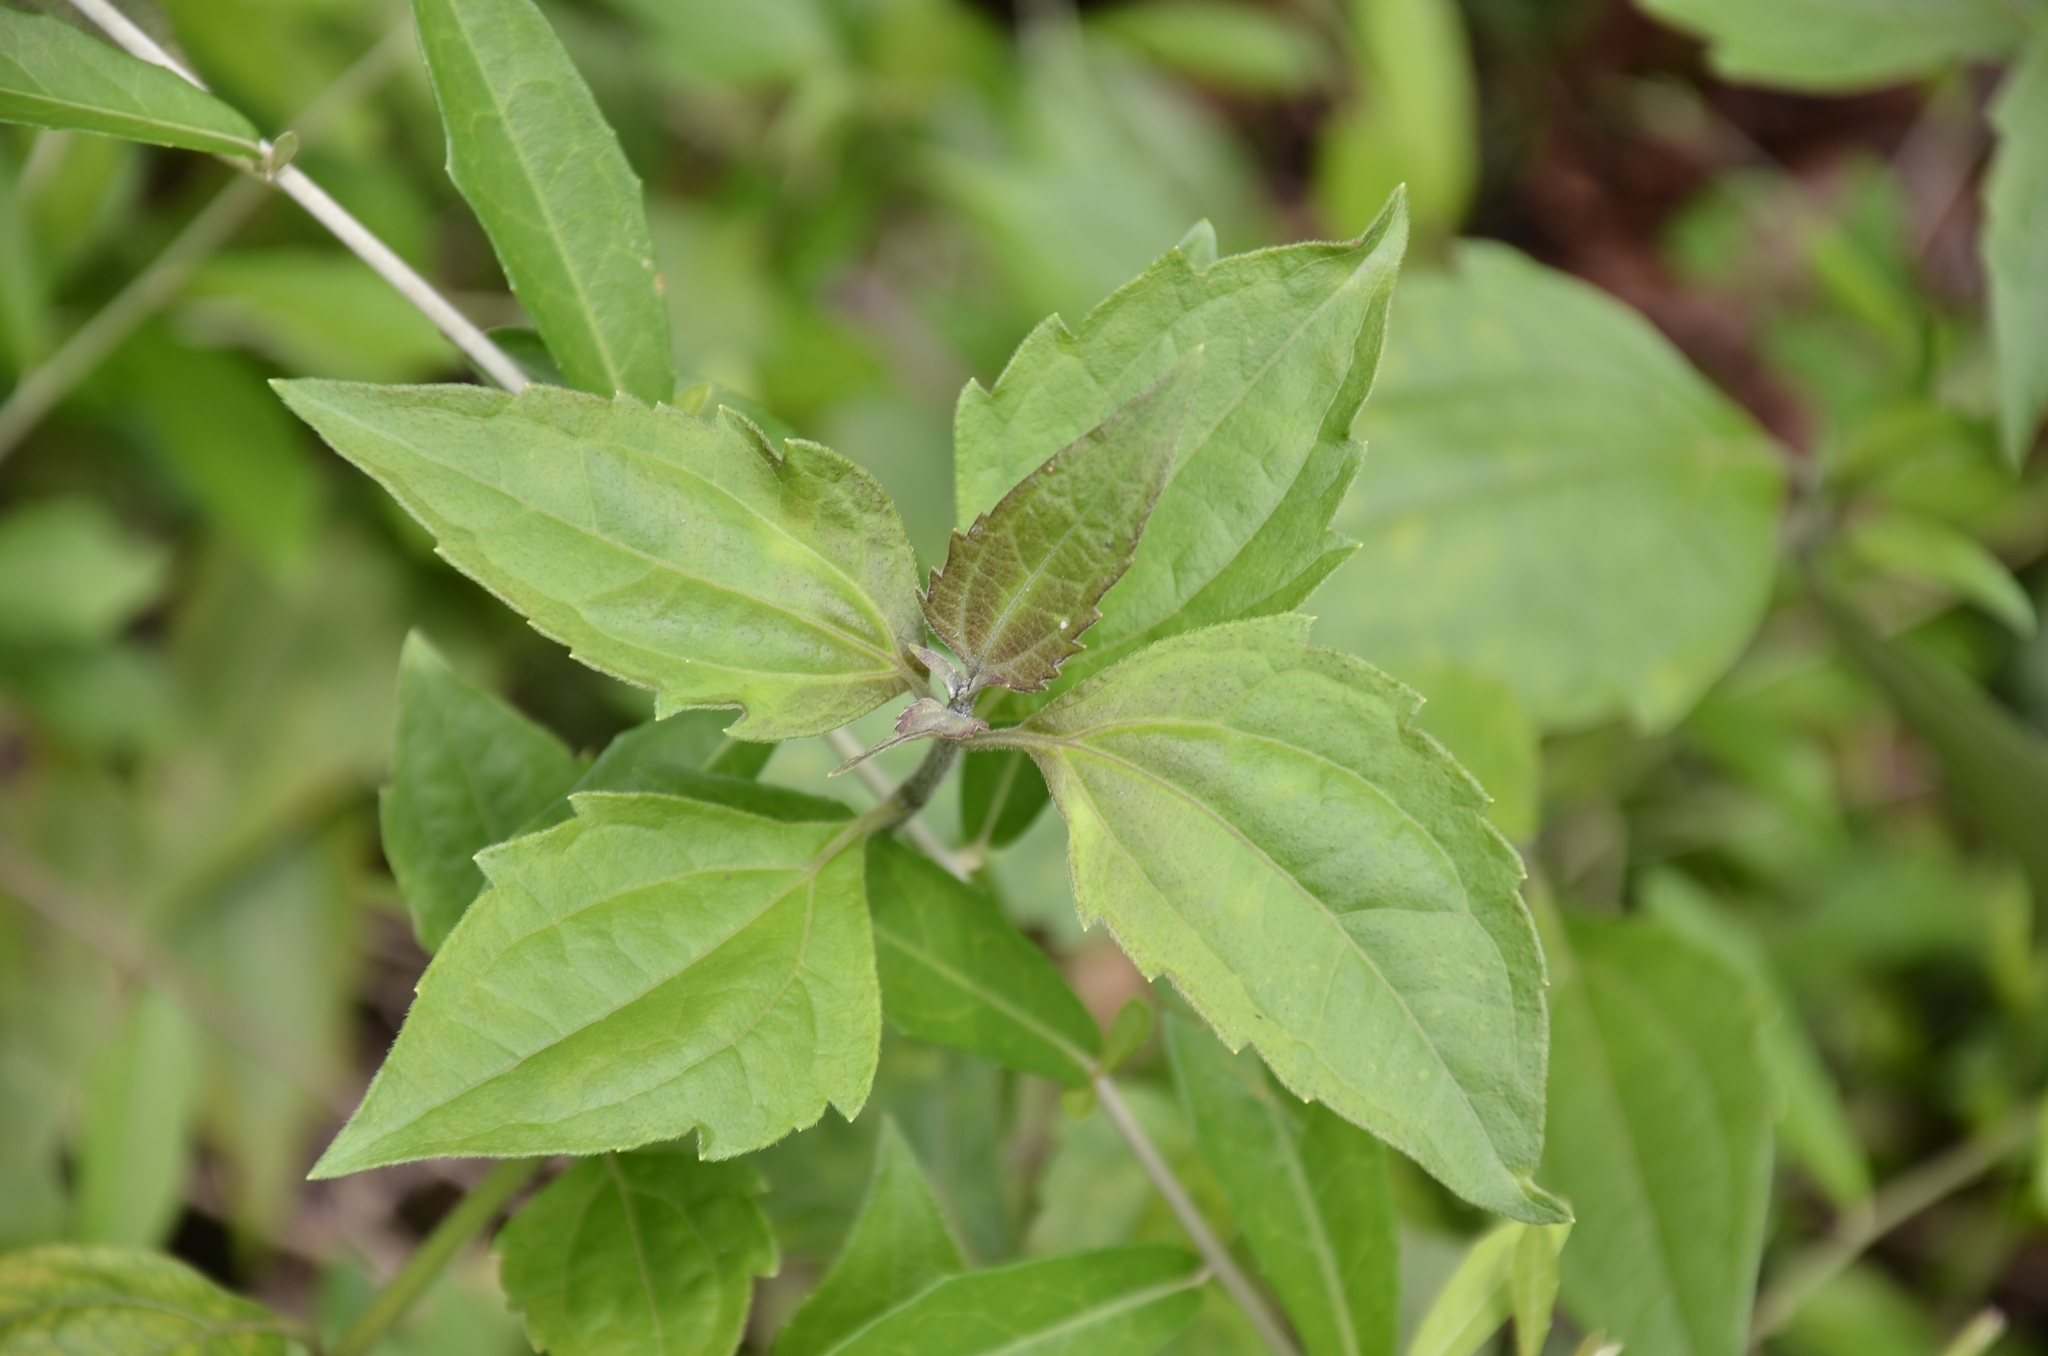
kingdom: Plantae
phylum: Tracheophyta
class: Magnoliopsida
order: Asterales
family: Asteraceae
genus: Chromolaena
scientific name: Chromolaena odorata
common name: Siamweed
